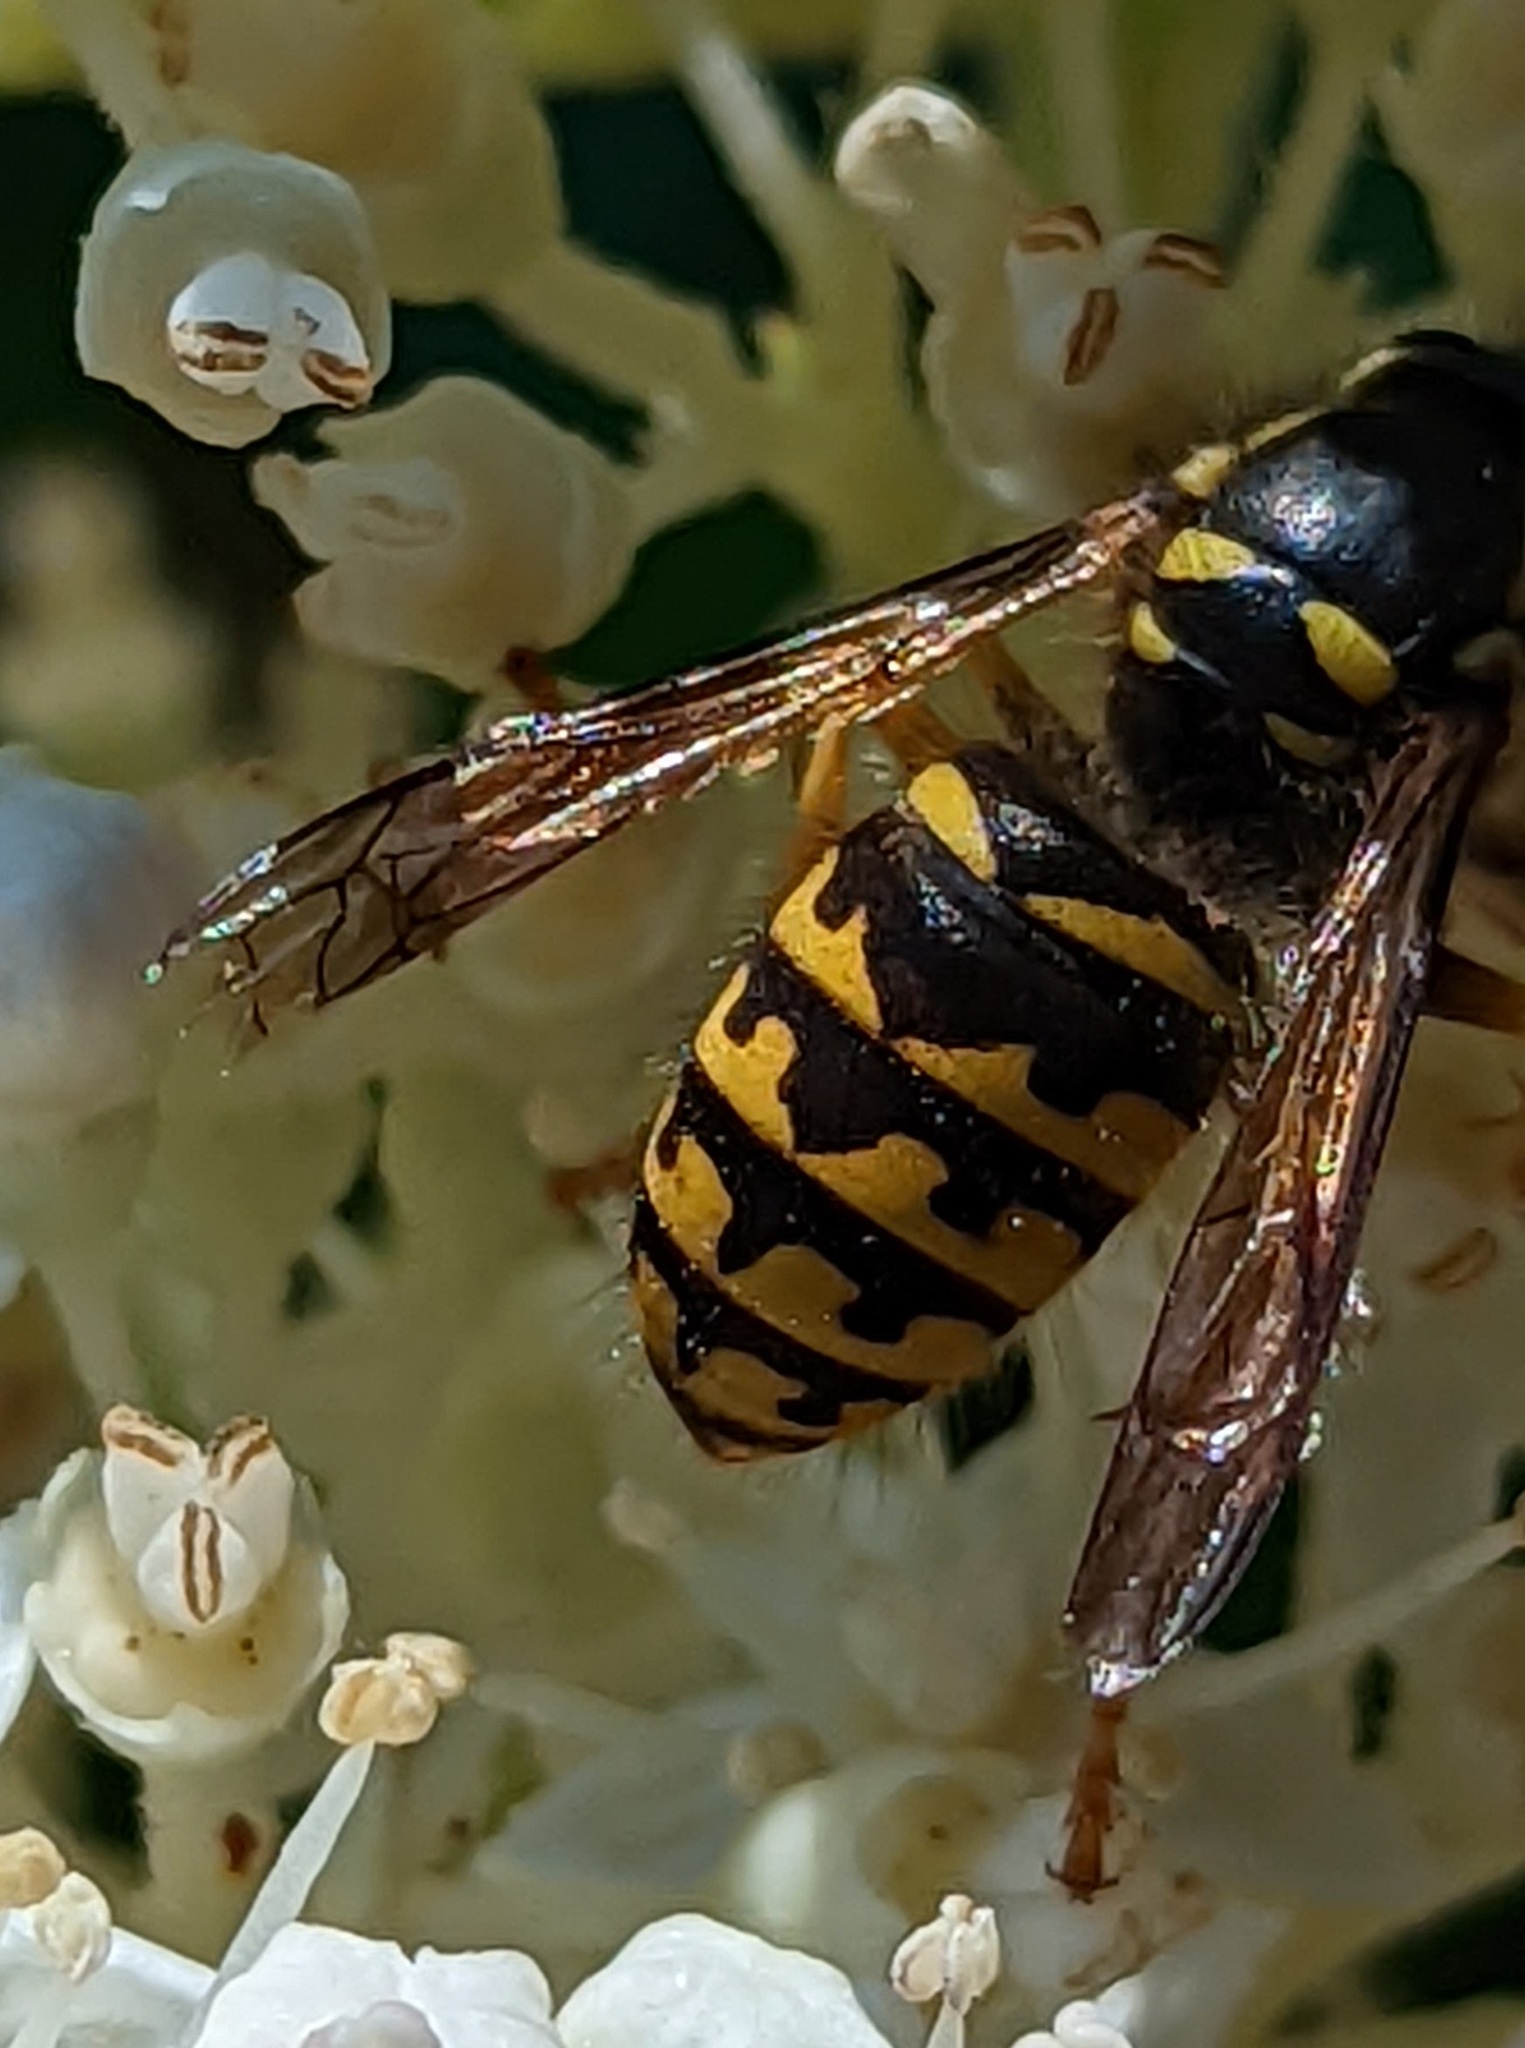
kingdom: Animalia
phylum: Arthropoda
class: Insecta
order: Hymenoptera
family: Vespidae
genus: Dolichovespula
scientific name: Dolichovespula arenaria
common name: Aerial yellowjacket
